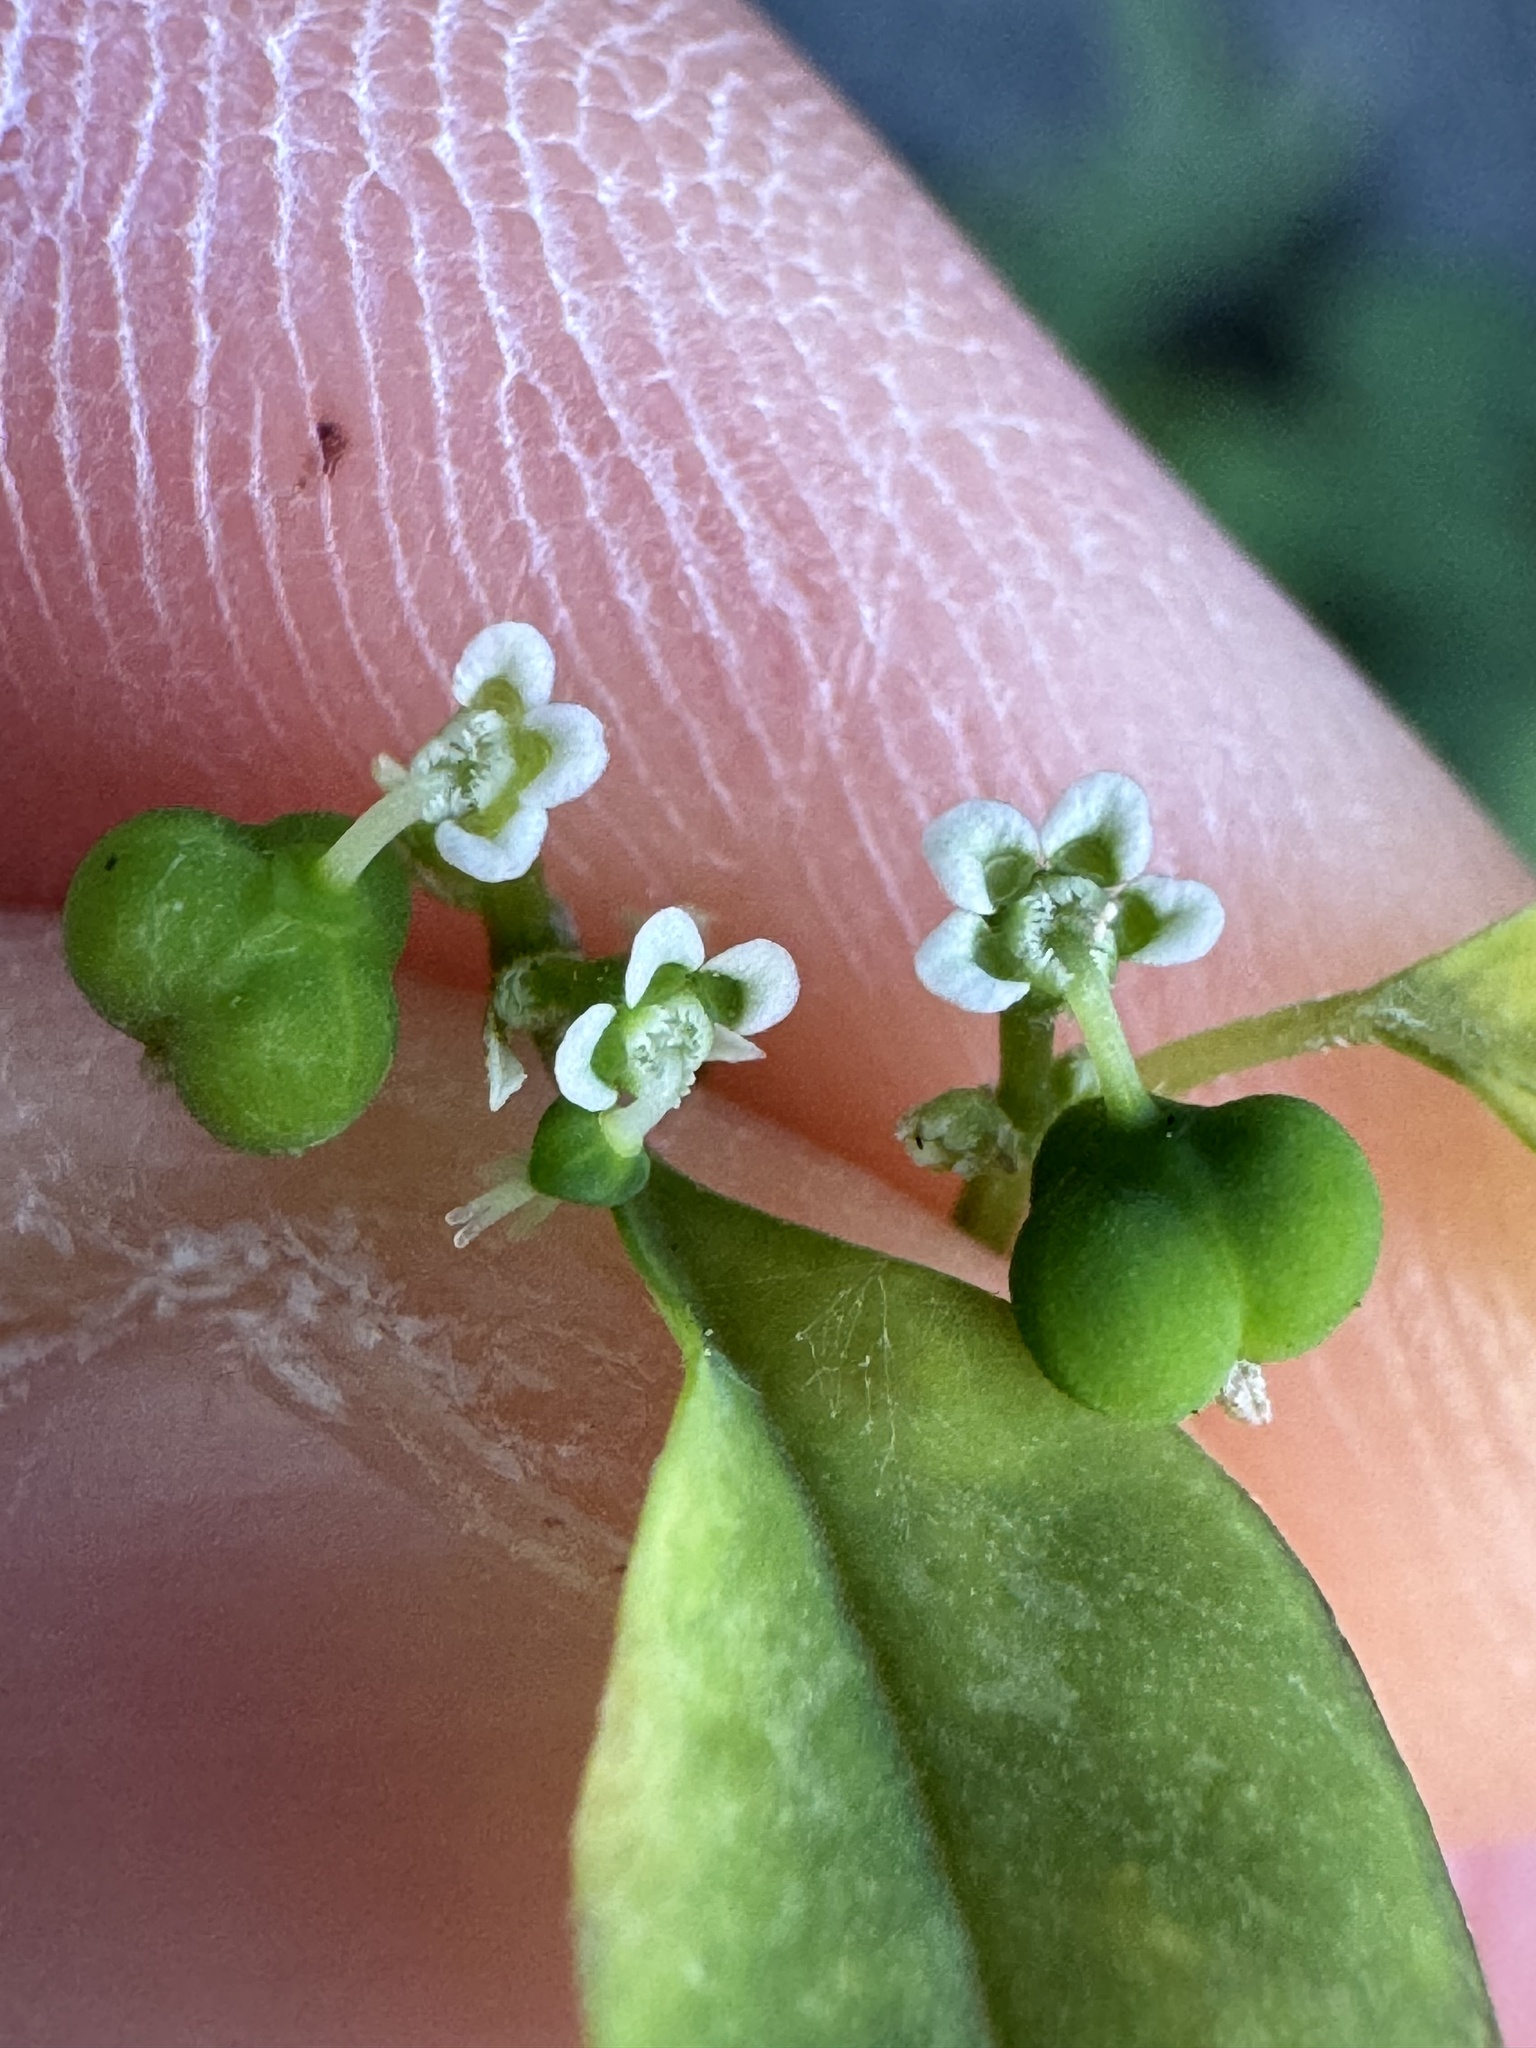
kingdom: Plantae
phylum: Tracheophyta
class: Magnoliopsida
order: Malpighiales
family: Euphorbiaceae
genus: Euphorbia
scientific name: Euphorbia graminea
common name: Grassleaf spurge
